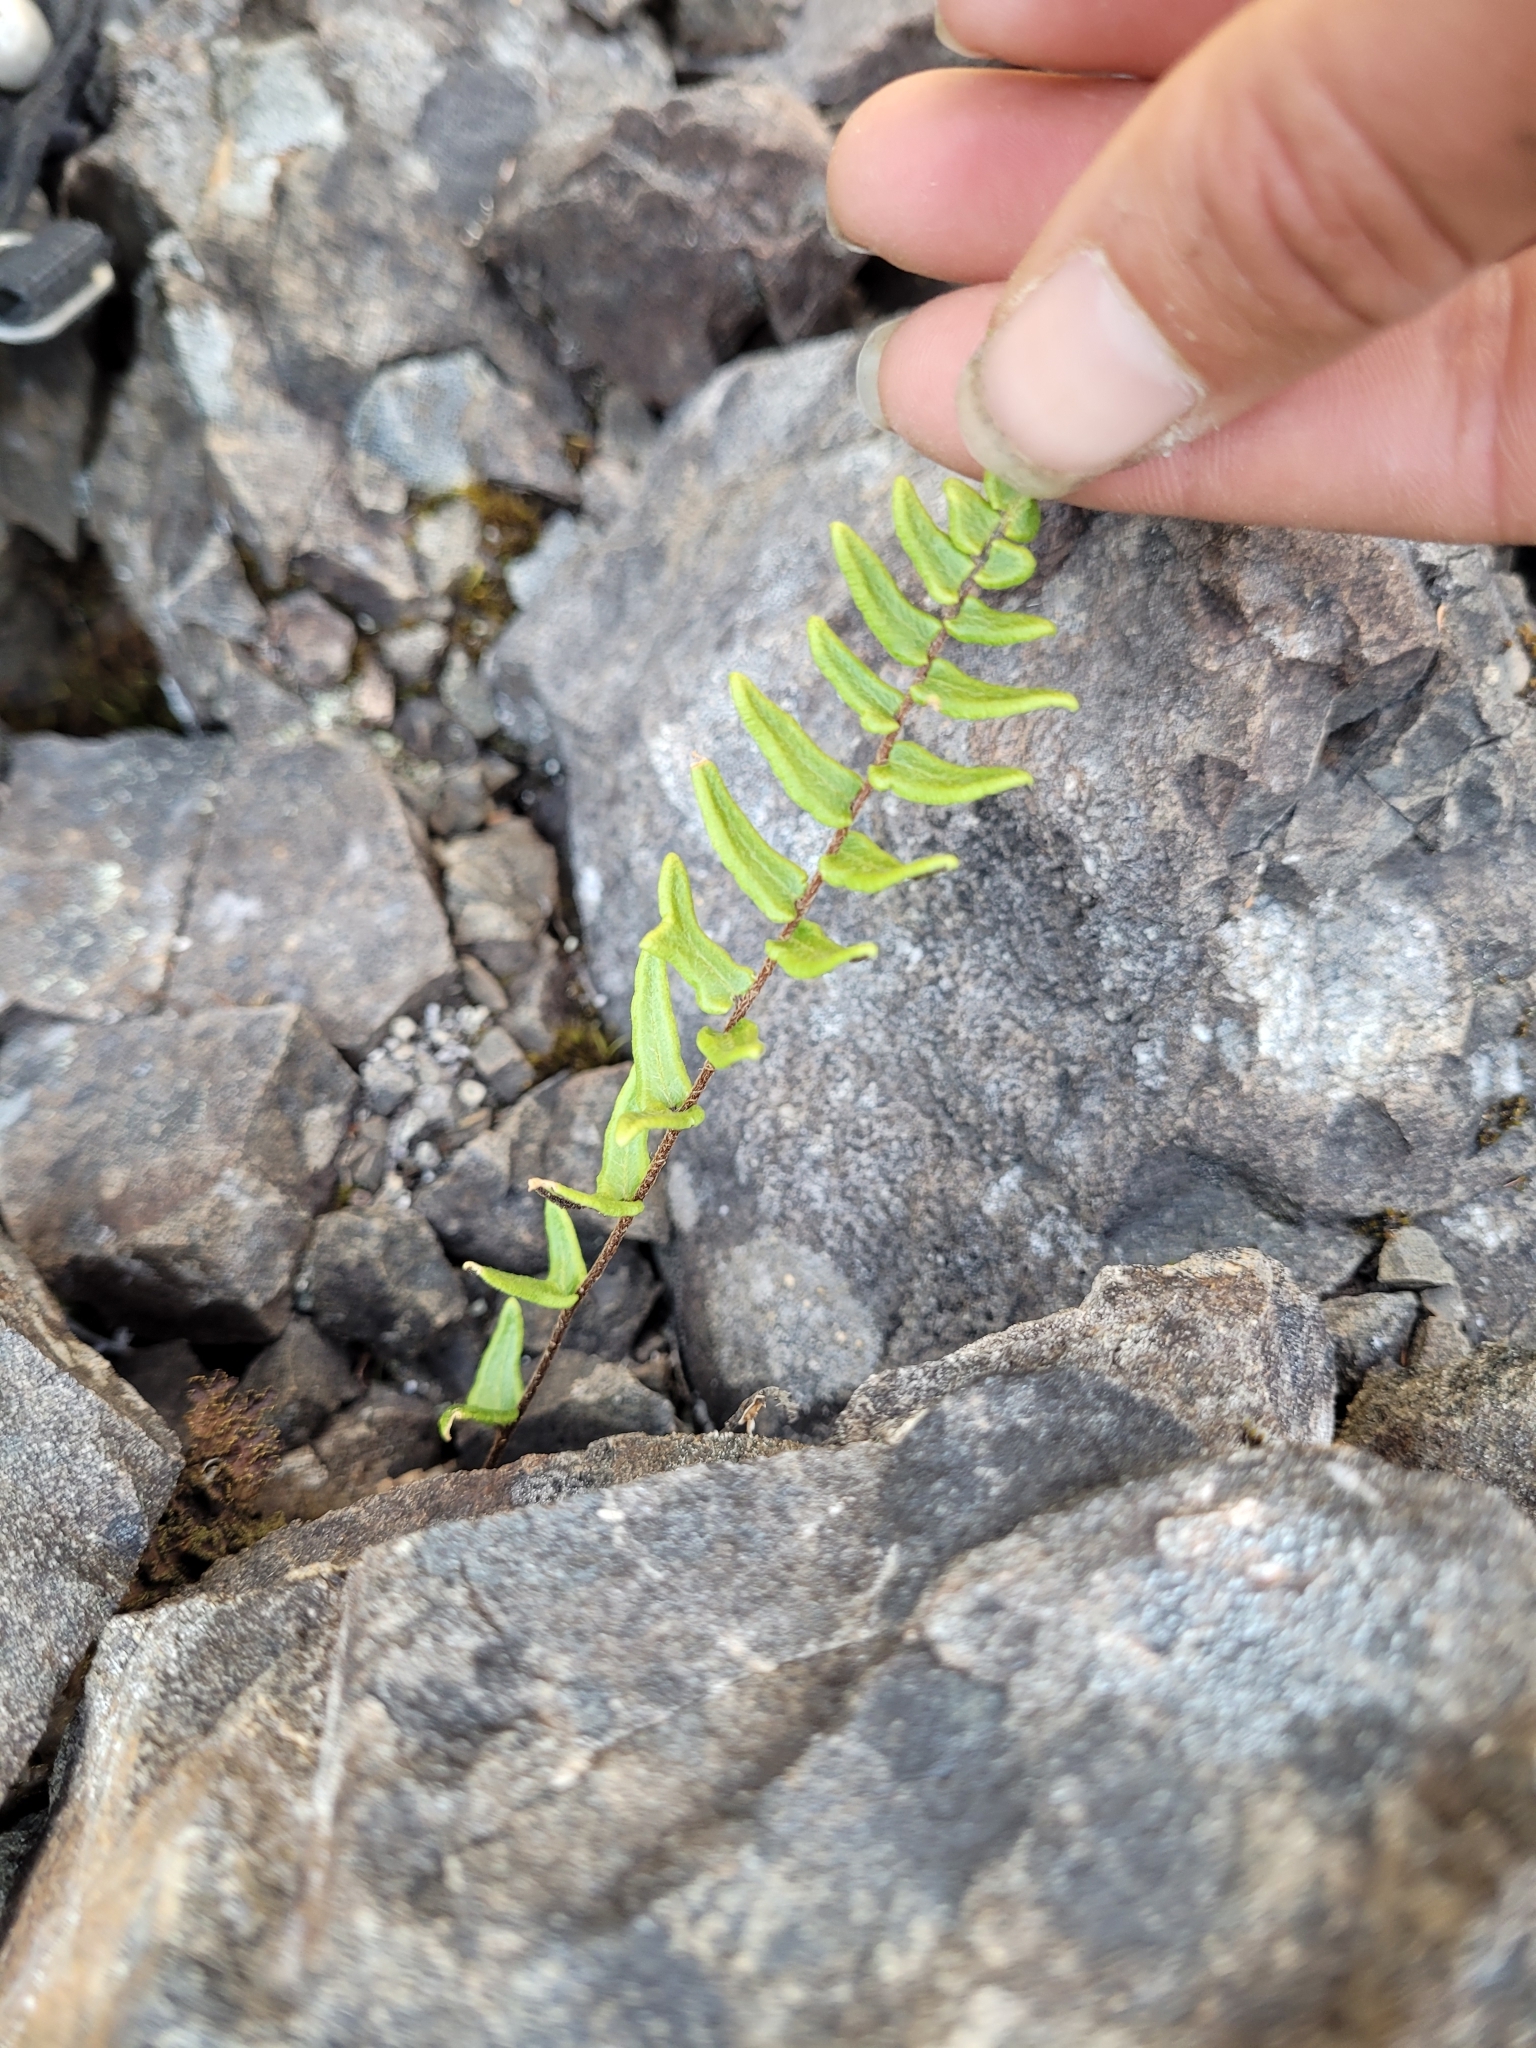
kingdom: Plantae
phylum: Tracheophyta
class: Polypodiopsida
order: Polypodiales
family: Pteridaceae
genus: Pellaea
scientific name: Pellaea calidirupium
